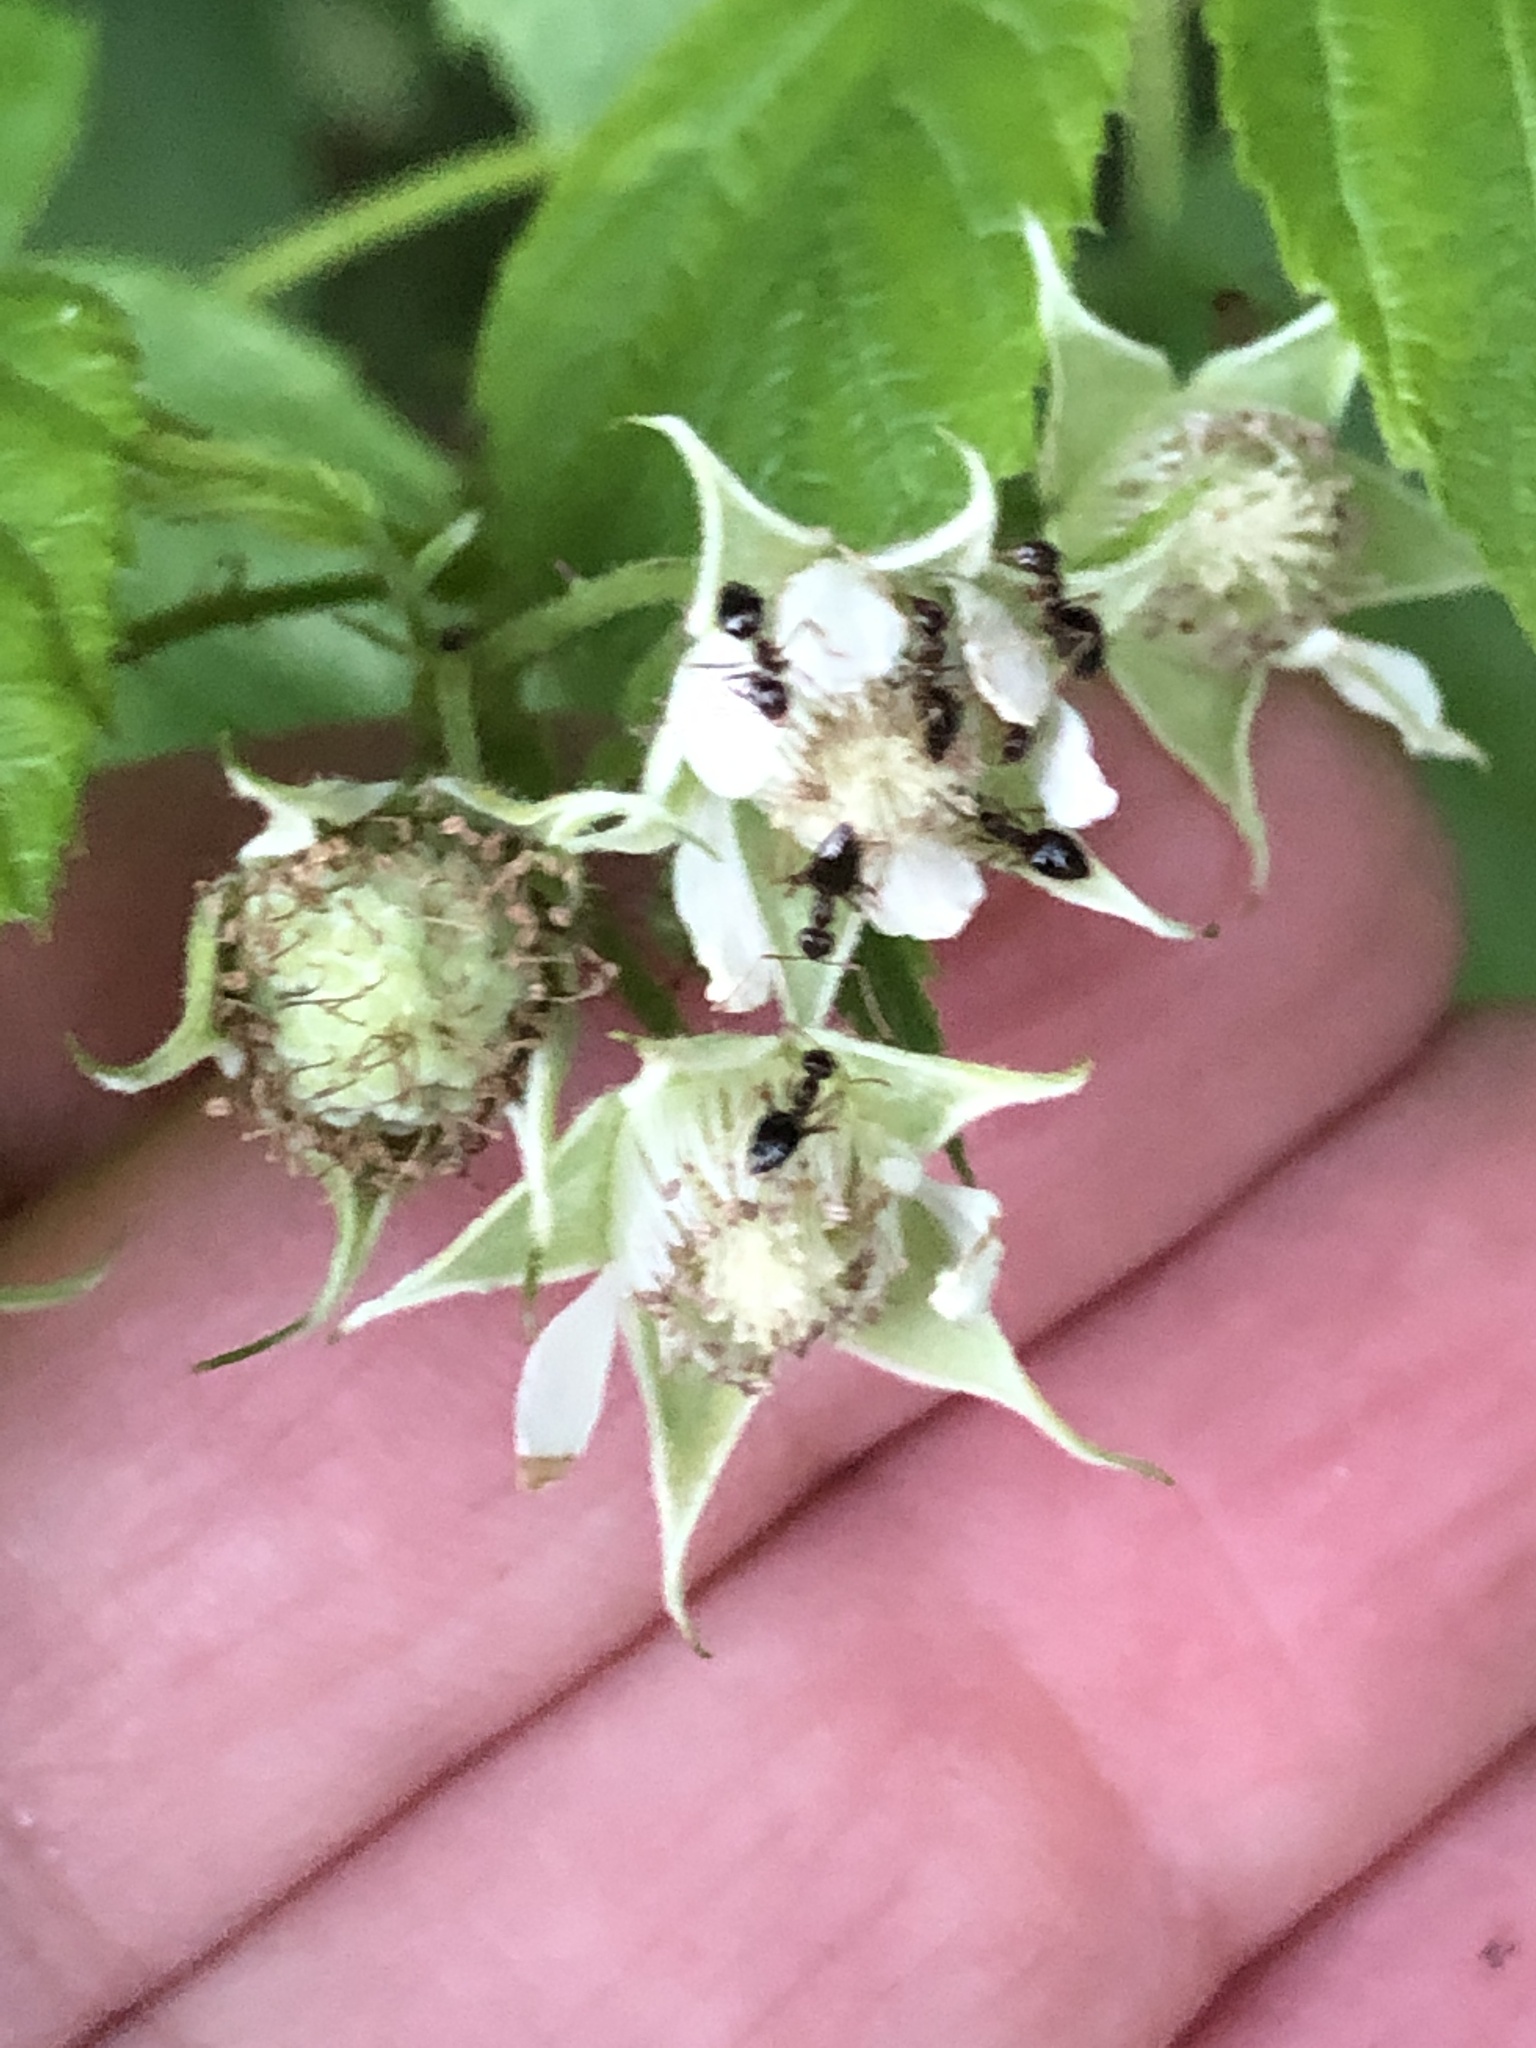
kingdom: Plantae
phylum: Tracheophyta
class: Magnoliopsida
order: Rosales
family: Rosaceae
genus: Rubus
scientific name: Rubus occidentalis
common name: Black raspberry
